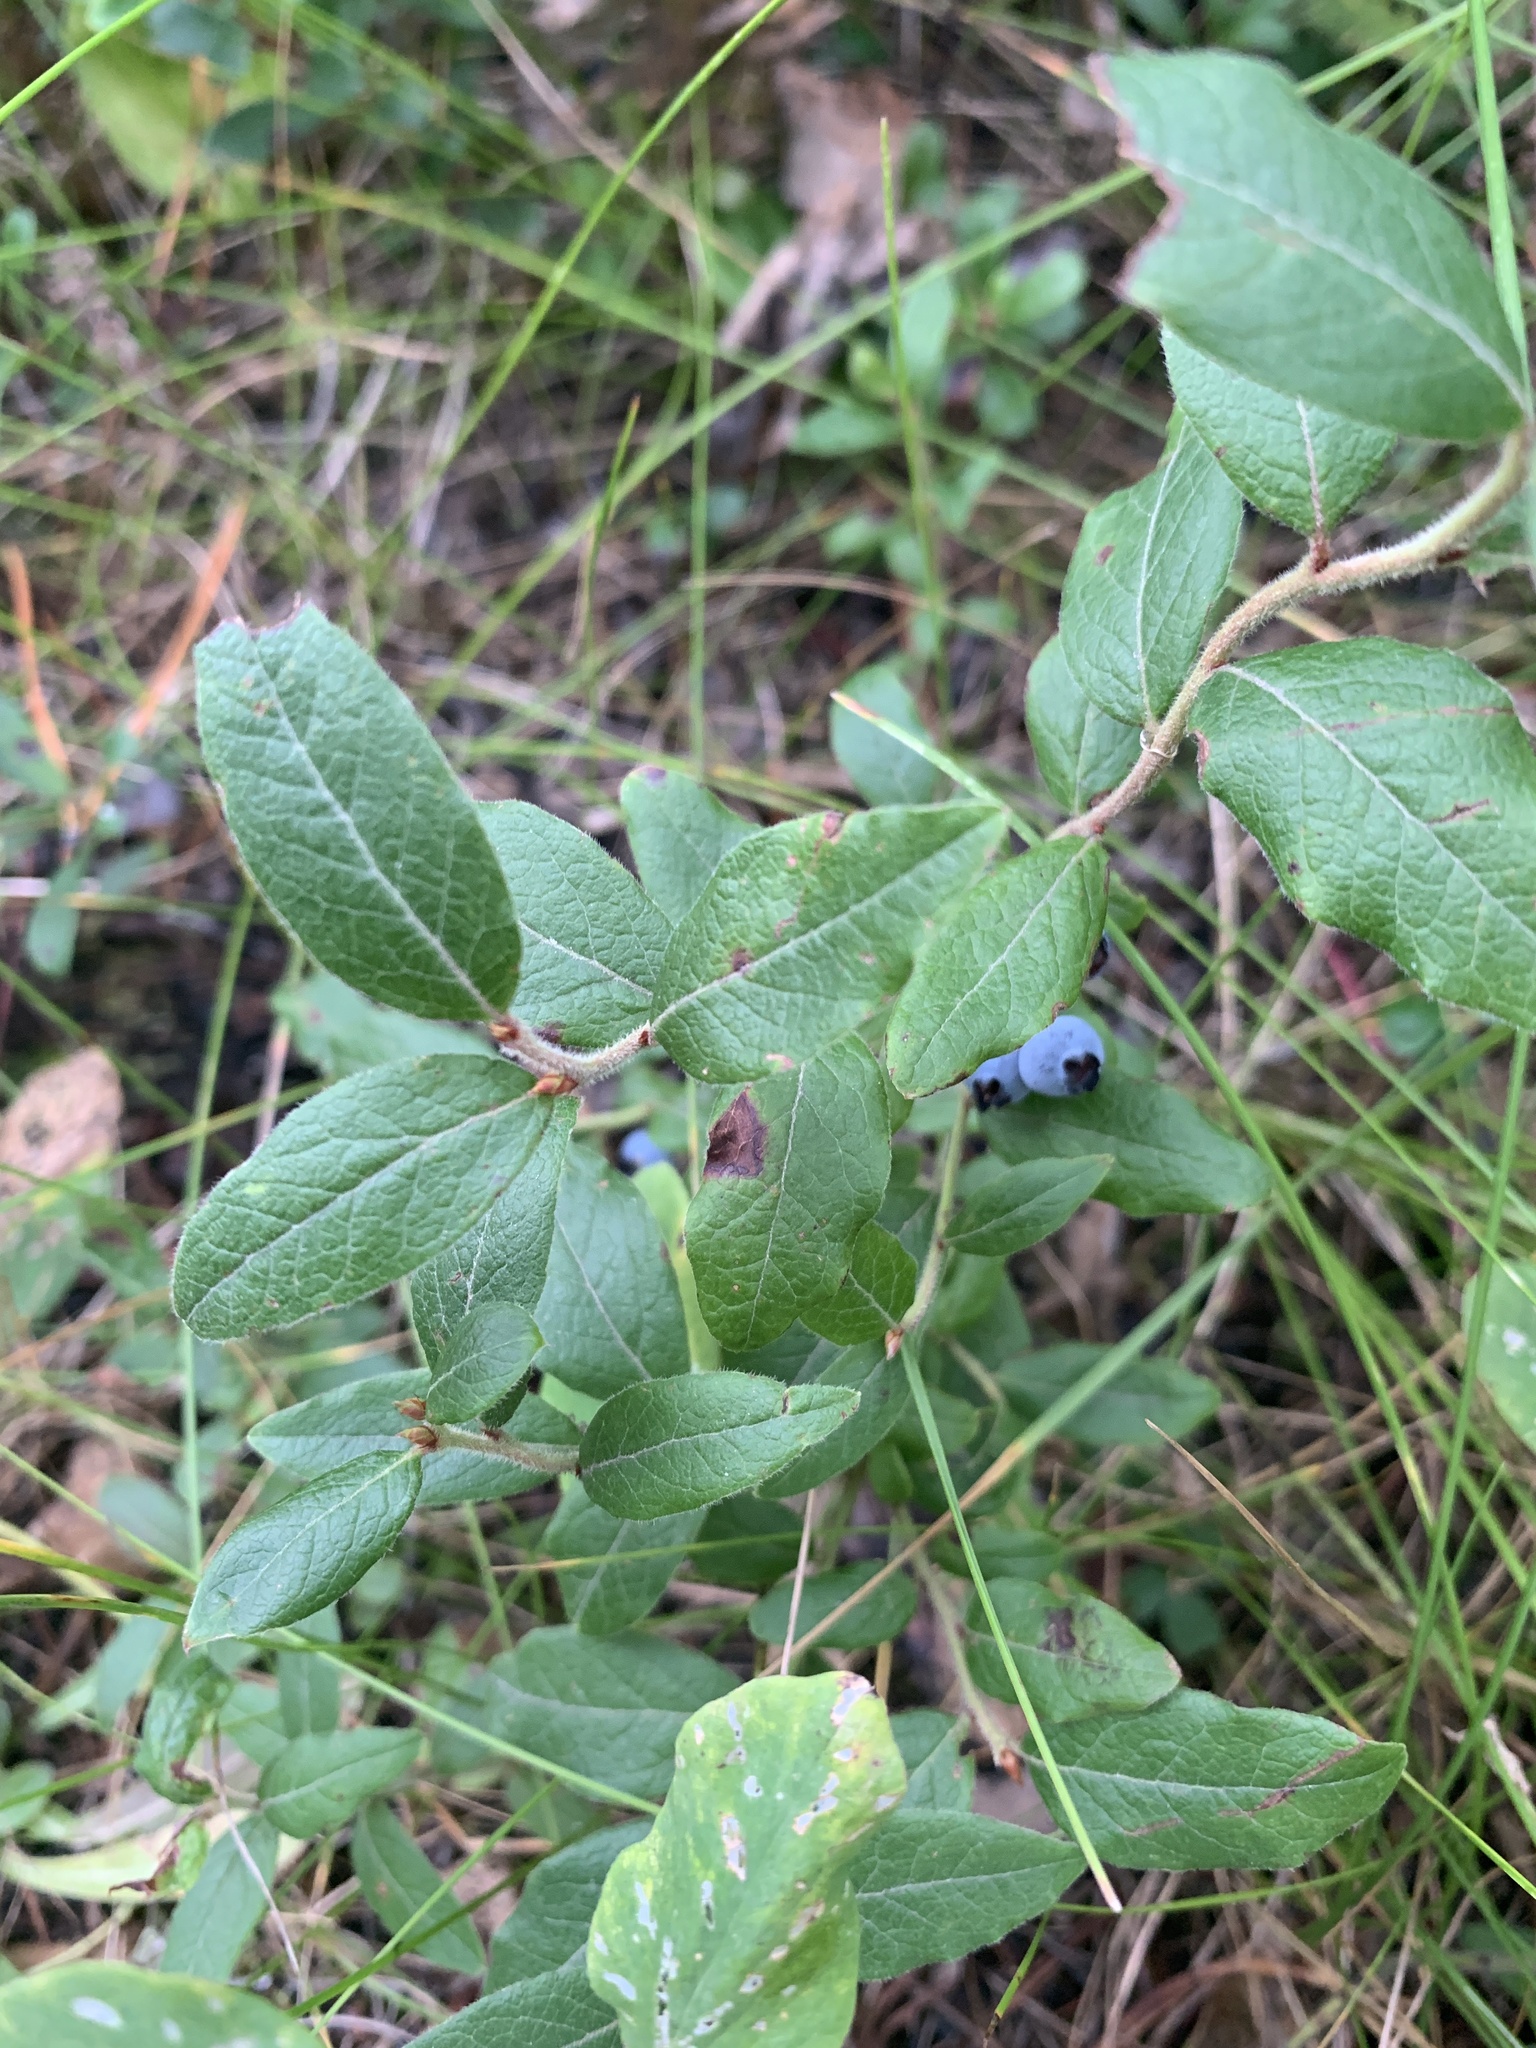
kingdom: Plantae
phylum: Tracheophyta
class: Magnoliopsida
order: Rosales
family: Rosaceae
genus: Amelanchier
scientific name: Amelanchier alnifolia
